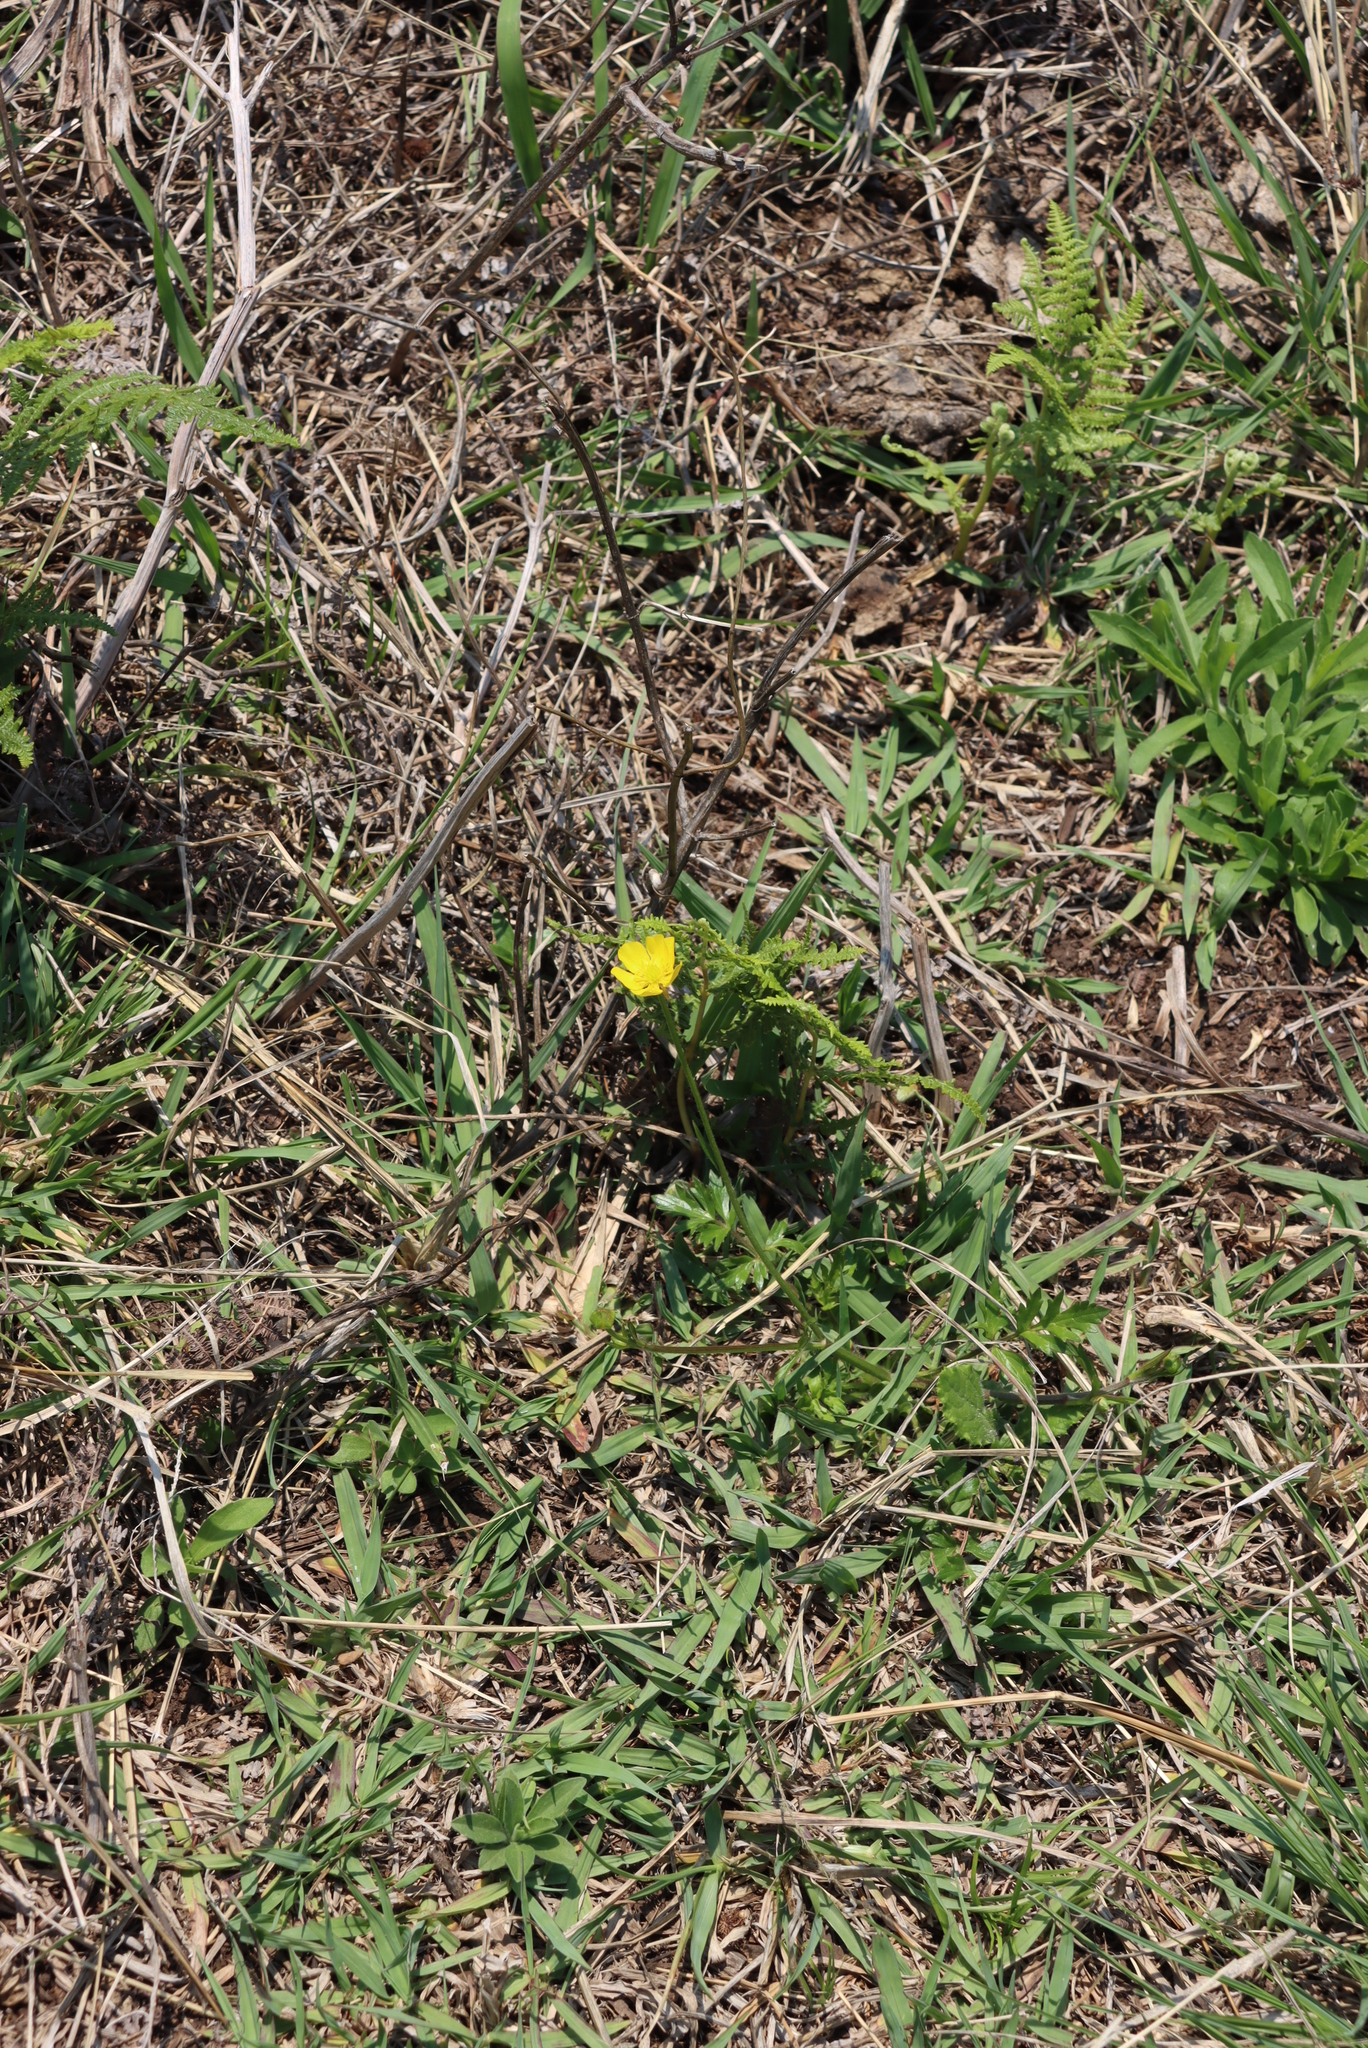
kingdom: Plantae
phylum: Tracheophyta
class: Magnoliopsida
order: Ranunculales
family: Ranunculaceae
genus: Ranunculus
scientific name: Ranunculus multifidus
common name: Wild buttercup
